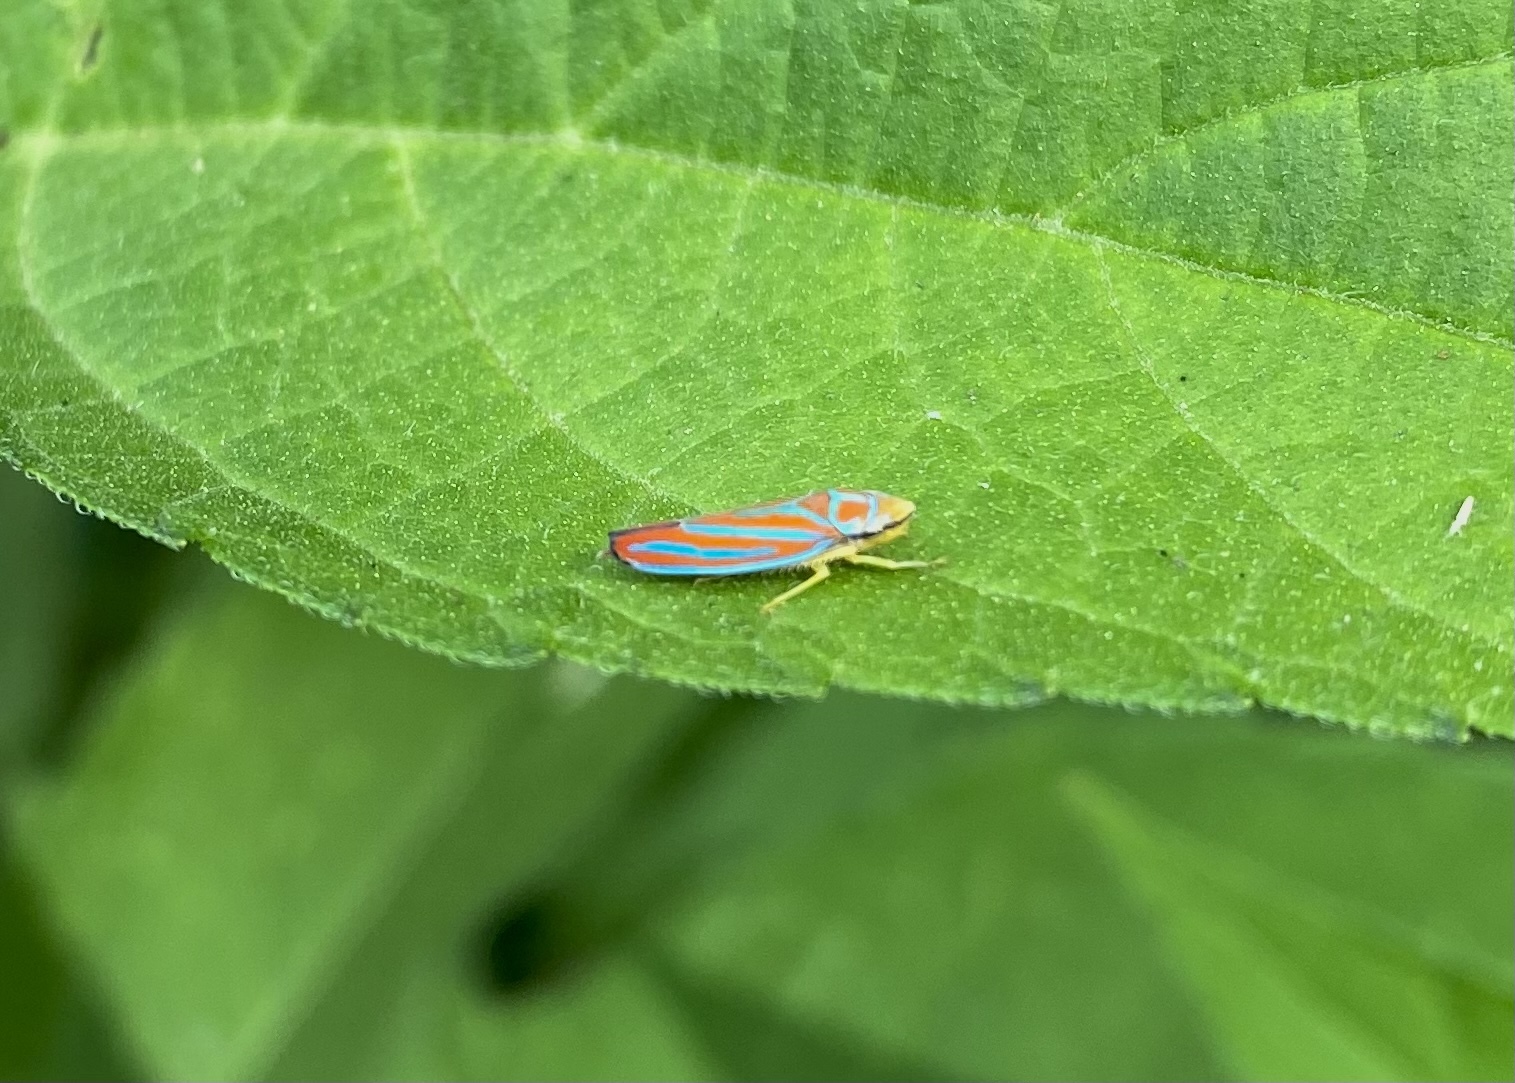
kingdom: Animalia
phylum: Arthropoda
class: Insecta
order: Hemiptera
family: Cicadellidae
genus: Graphocephala
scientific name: Graphocephala coccinea
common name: Candy-striped leafhopper
